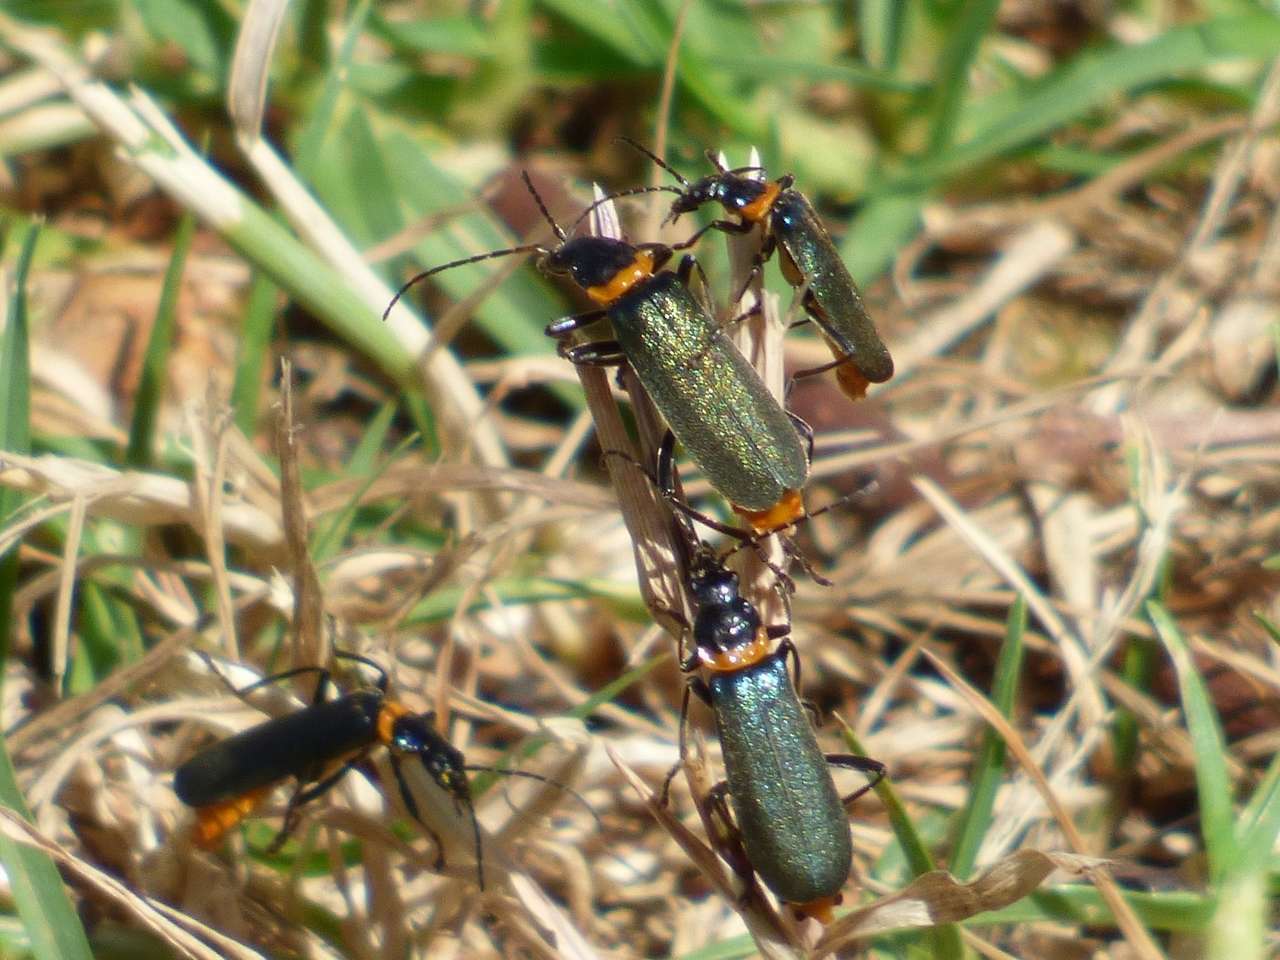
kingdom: Animalia
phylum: Arthropoda
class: Insecta
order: Coleoptera
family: Cantharidae
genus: Chauliognathus
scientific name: Chauliognathus
